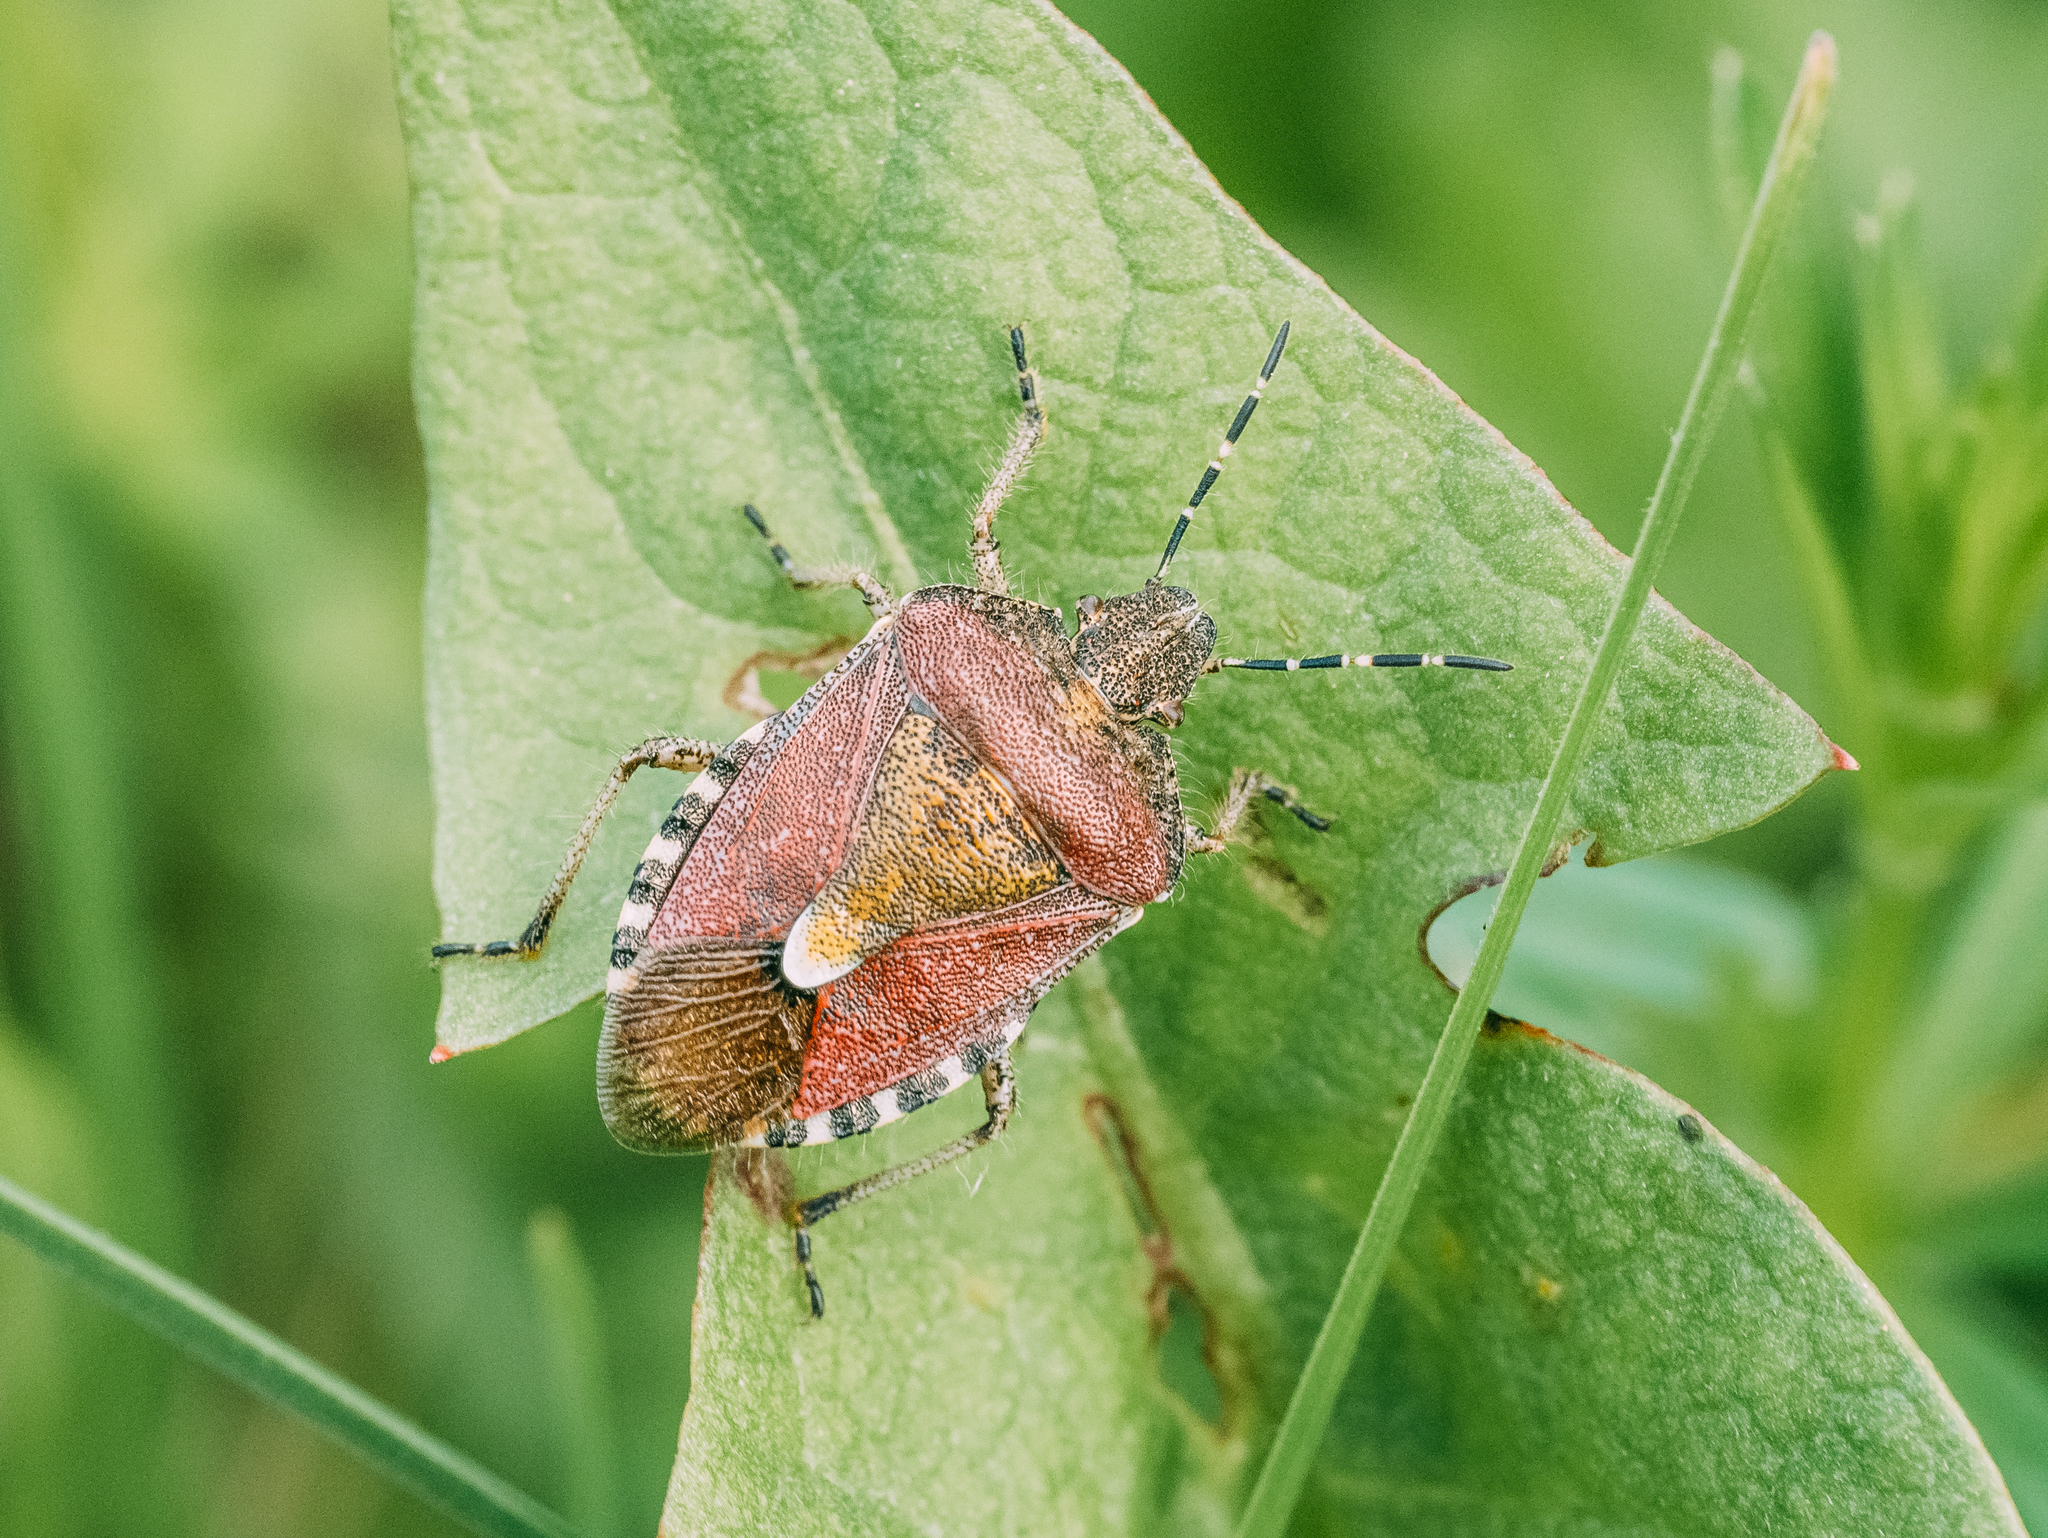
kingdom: Animalia
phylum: Arthropoda
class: Insecta
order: Hemiptera
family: Pentatomidae
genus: Dolycoris
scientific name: Dolycoris baccarum
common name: Sloe bug
